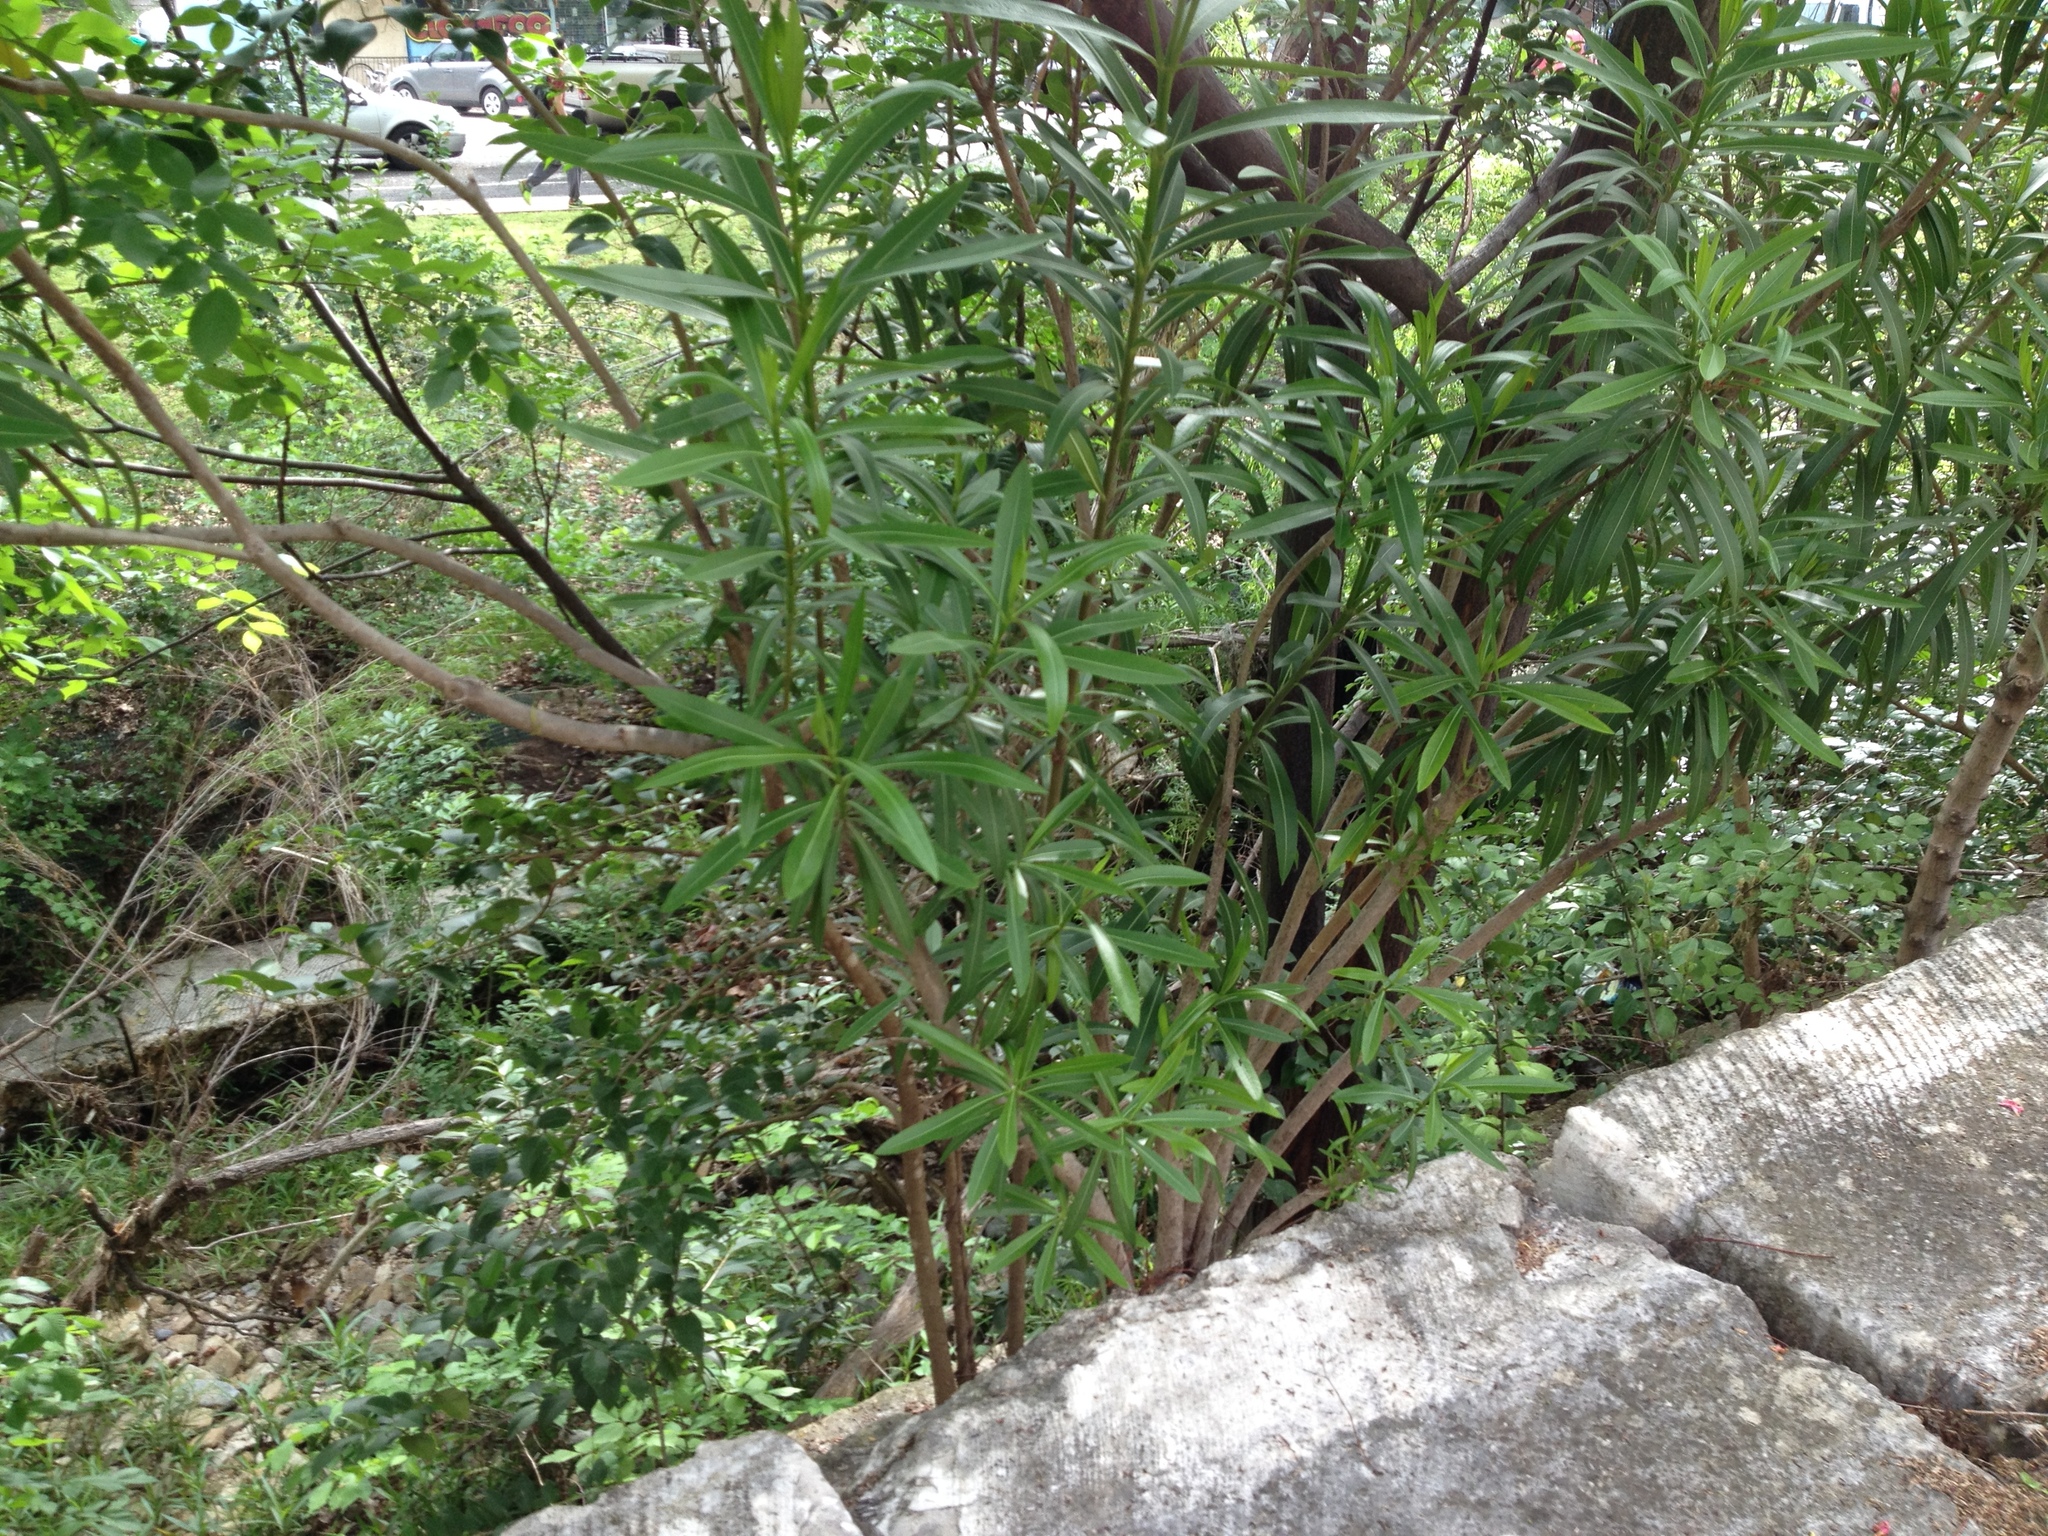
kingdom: Plantae
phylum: Tracheophyta
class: Magnoliopsida
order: Gentianales
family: Apocynaceae
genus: Nerium
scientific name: Nerium oleander
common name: Oleander
